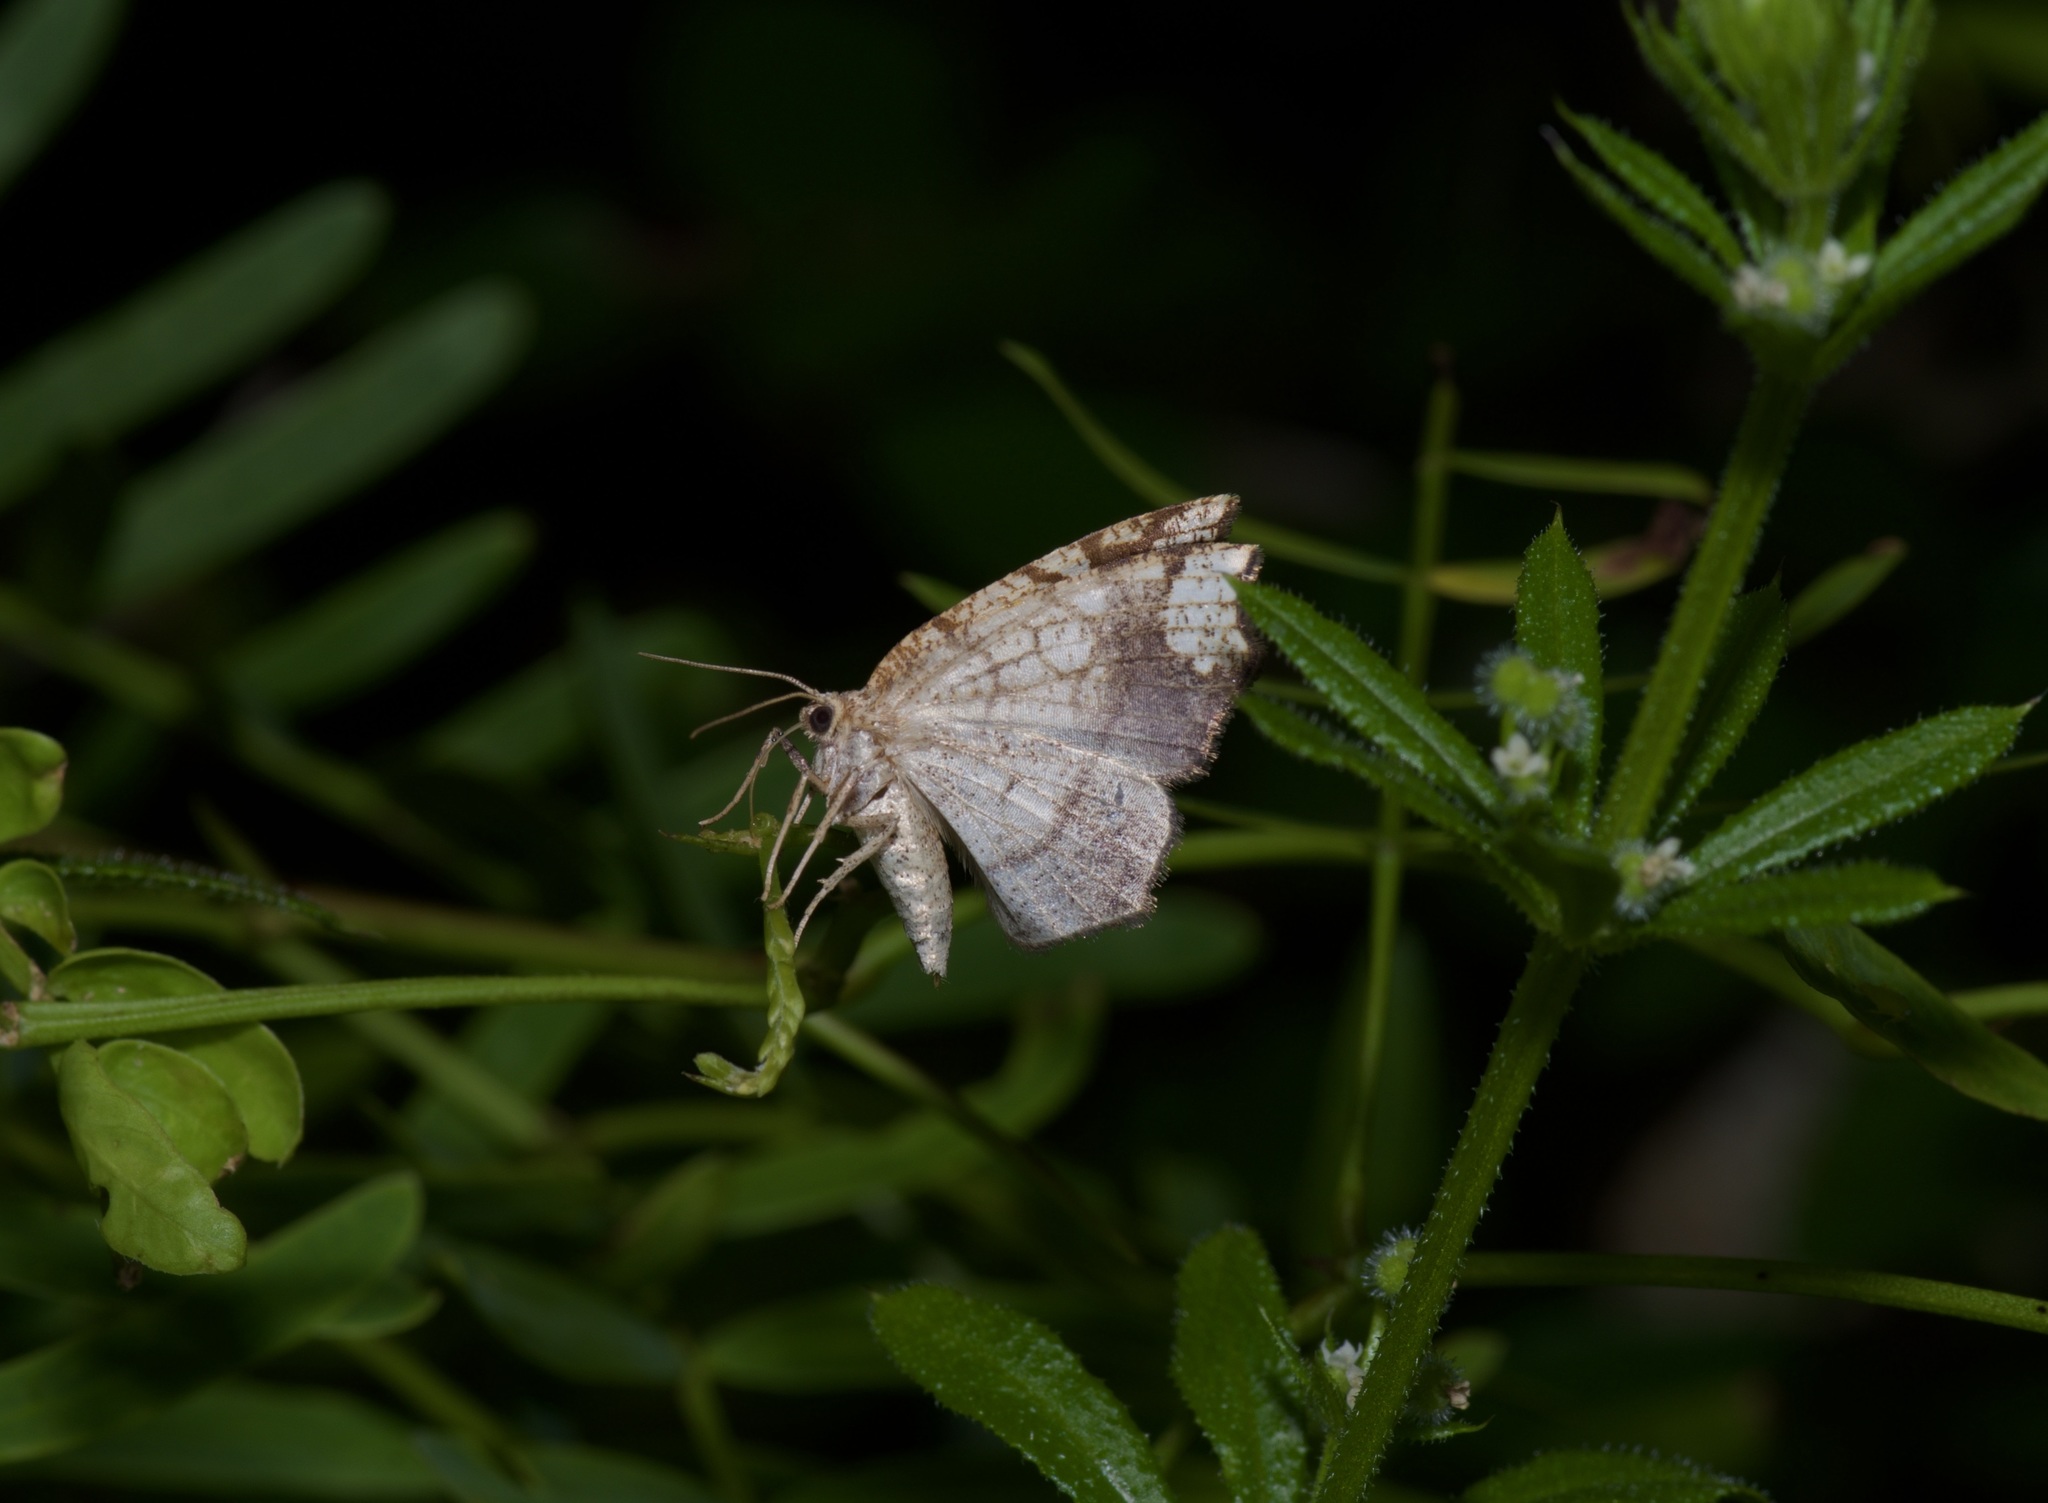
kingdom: Animalia
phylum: Arthropoda
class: Insecta
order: Lepidoptera
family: Geometridae
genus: Nematocampa
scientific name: Nematocampa resistaria
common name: Horned spanworm moth
